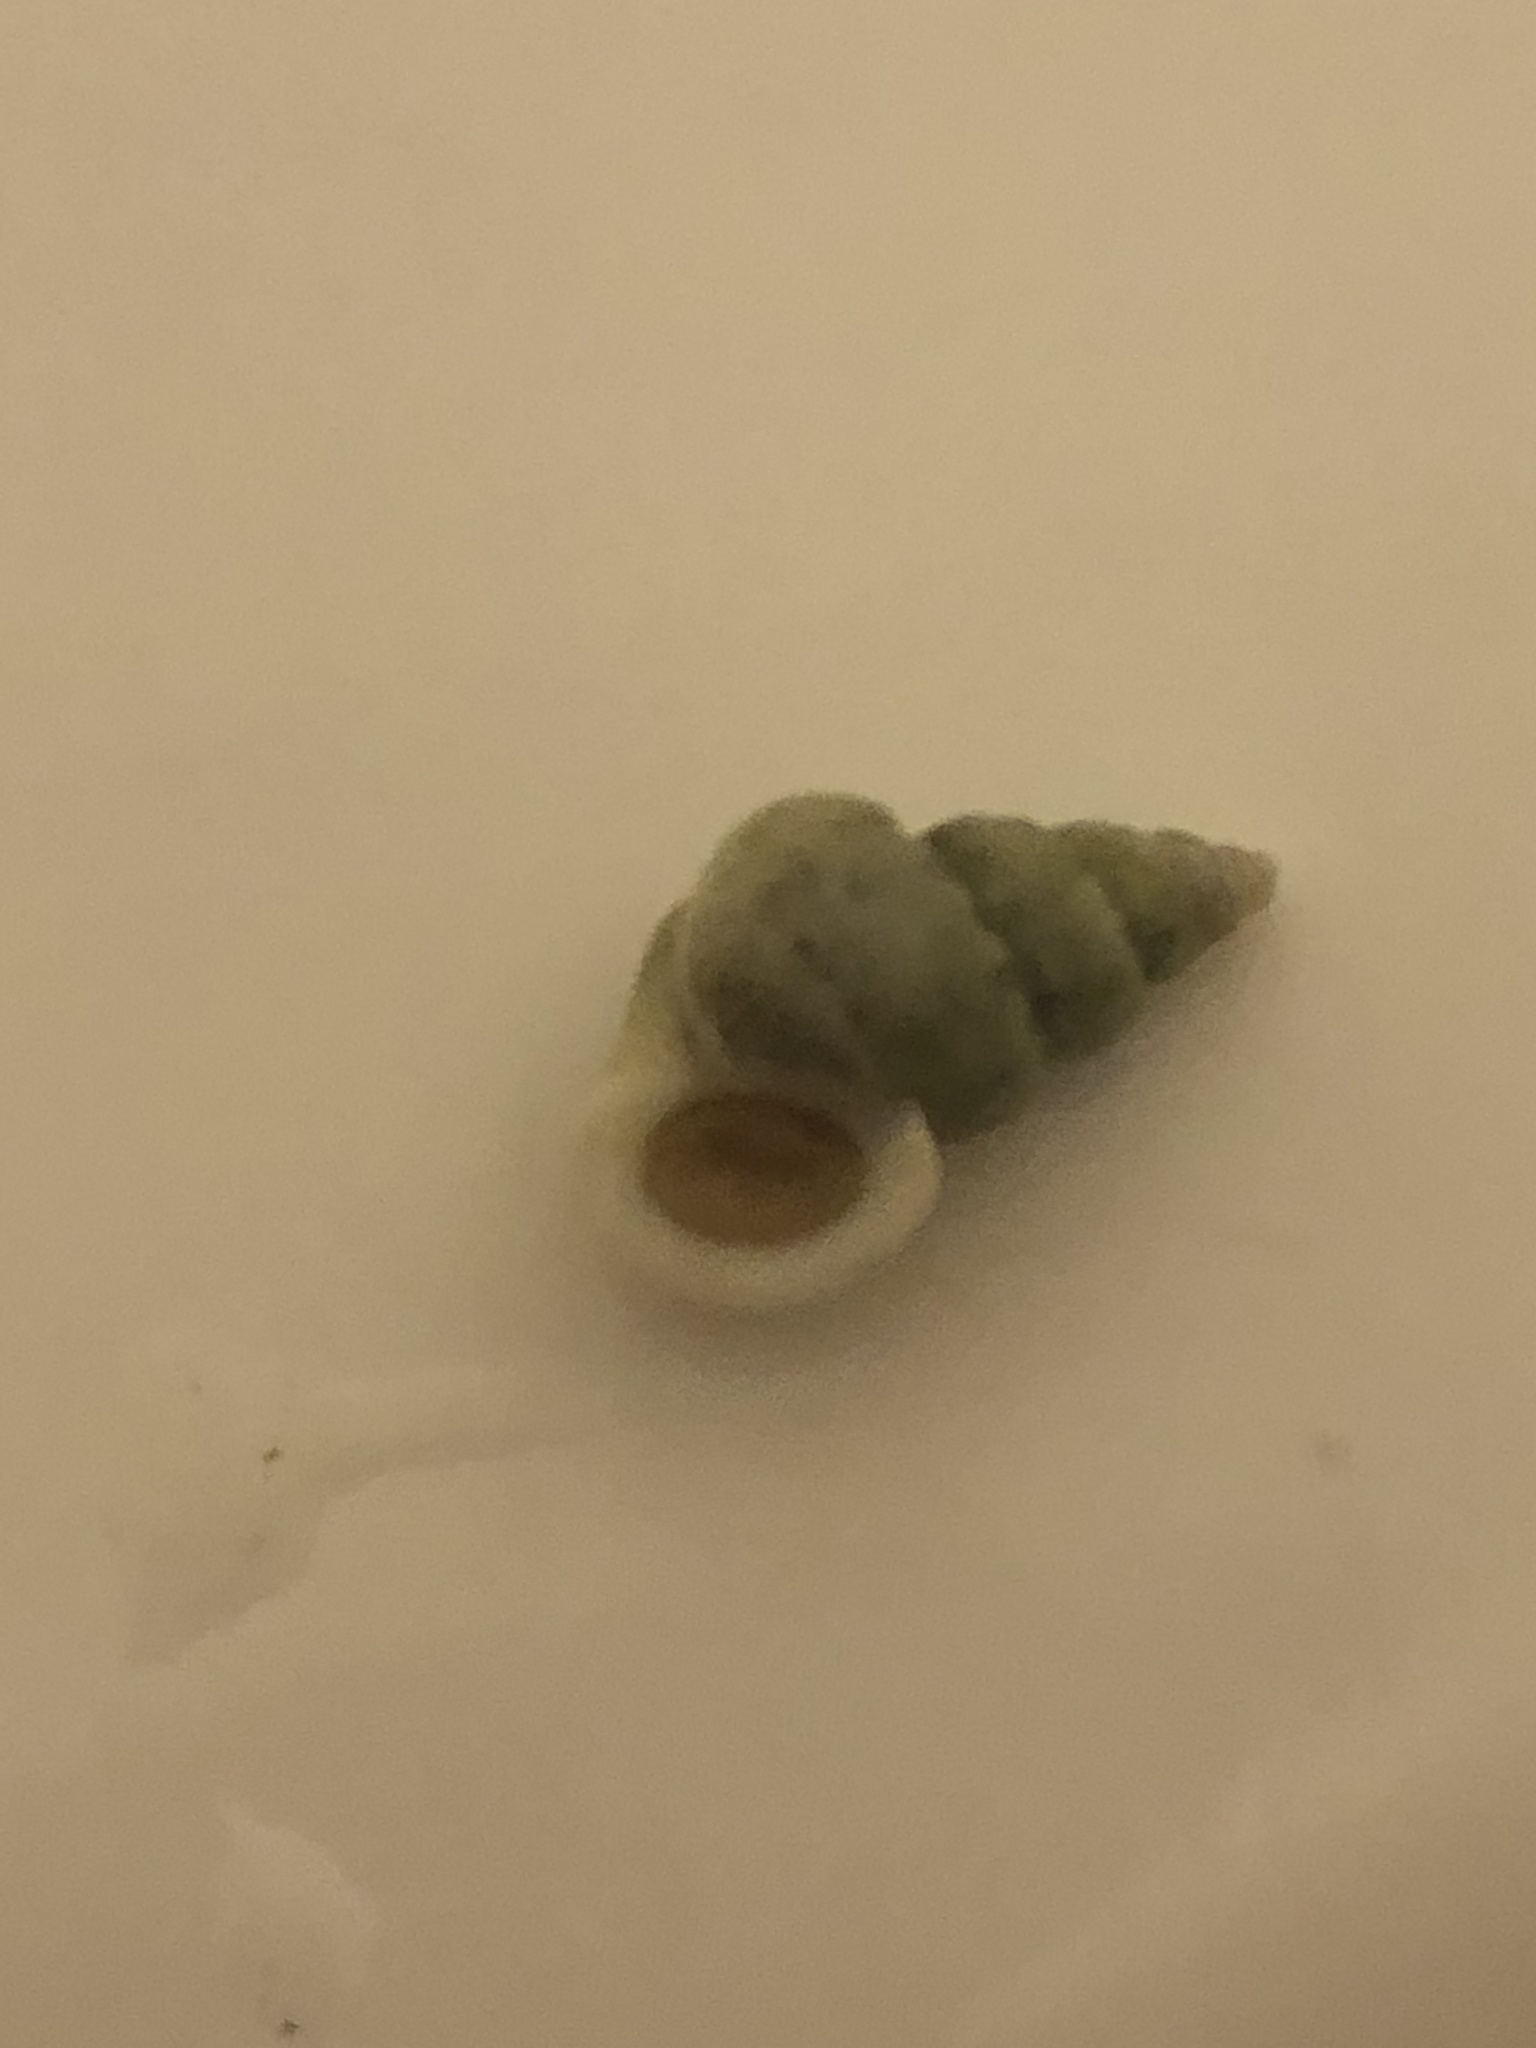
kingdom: Animalia
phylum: Mollusca
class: Gastropoda
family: Epitoniidae
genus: Opalia
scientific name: Opalia funiculata
